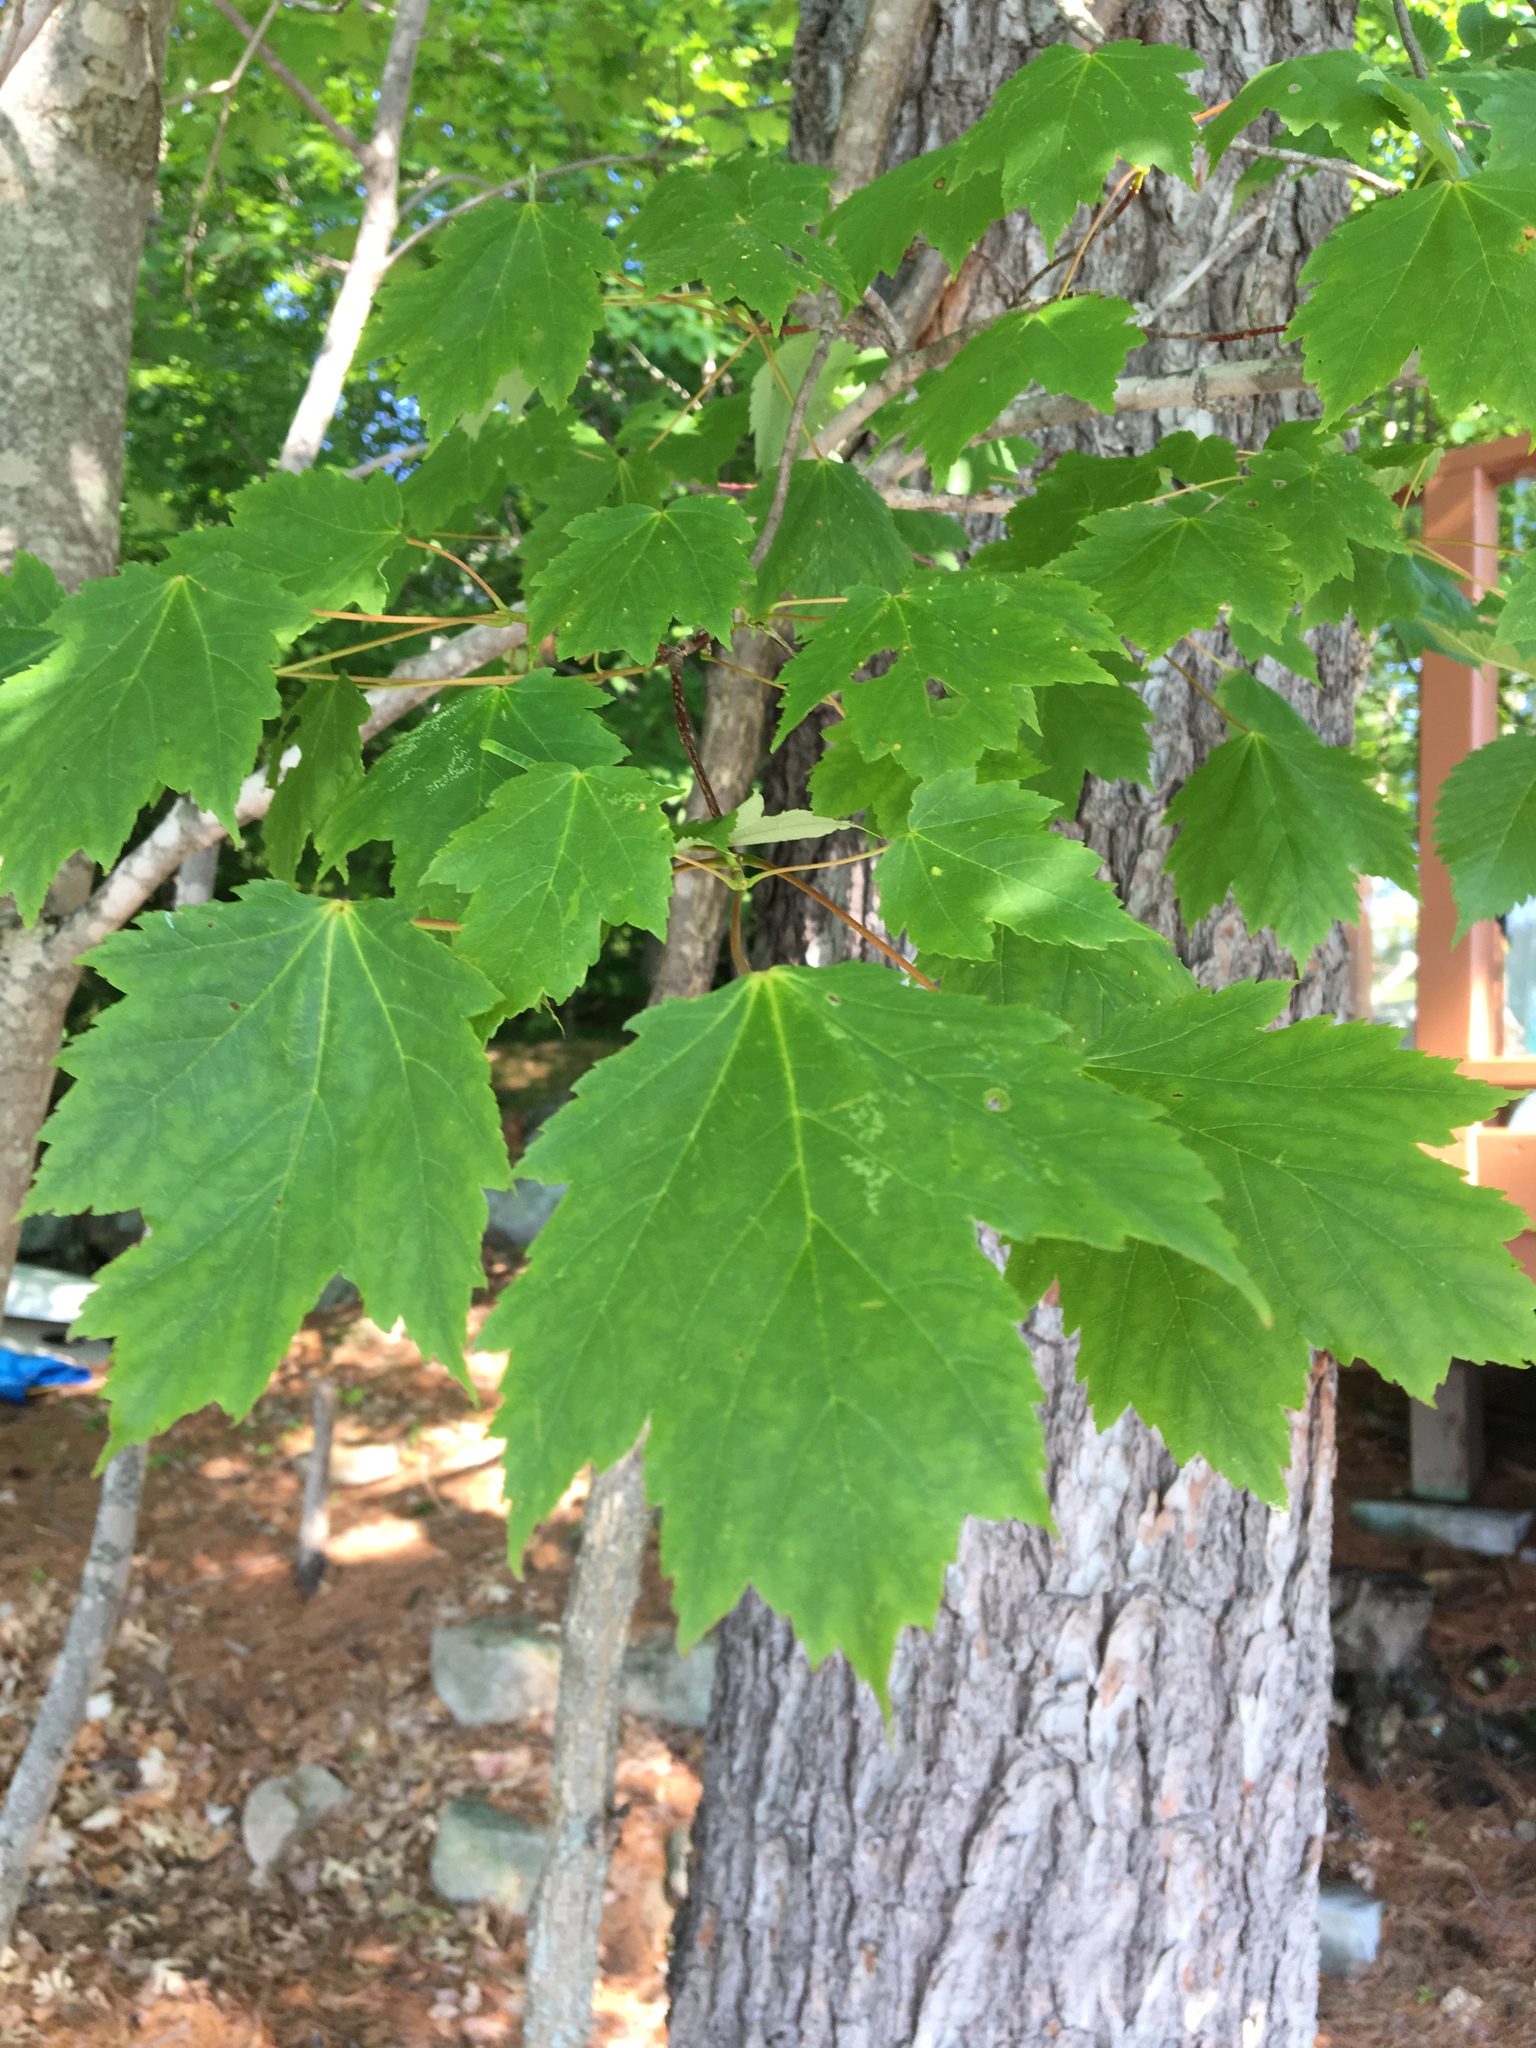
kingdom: Plantae
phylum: Tracheophyta
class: Magnoliopsida
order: Sapindales
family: Sapindaceae
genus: Acer
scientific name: Acer rubrum
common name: Red maple
